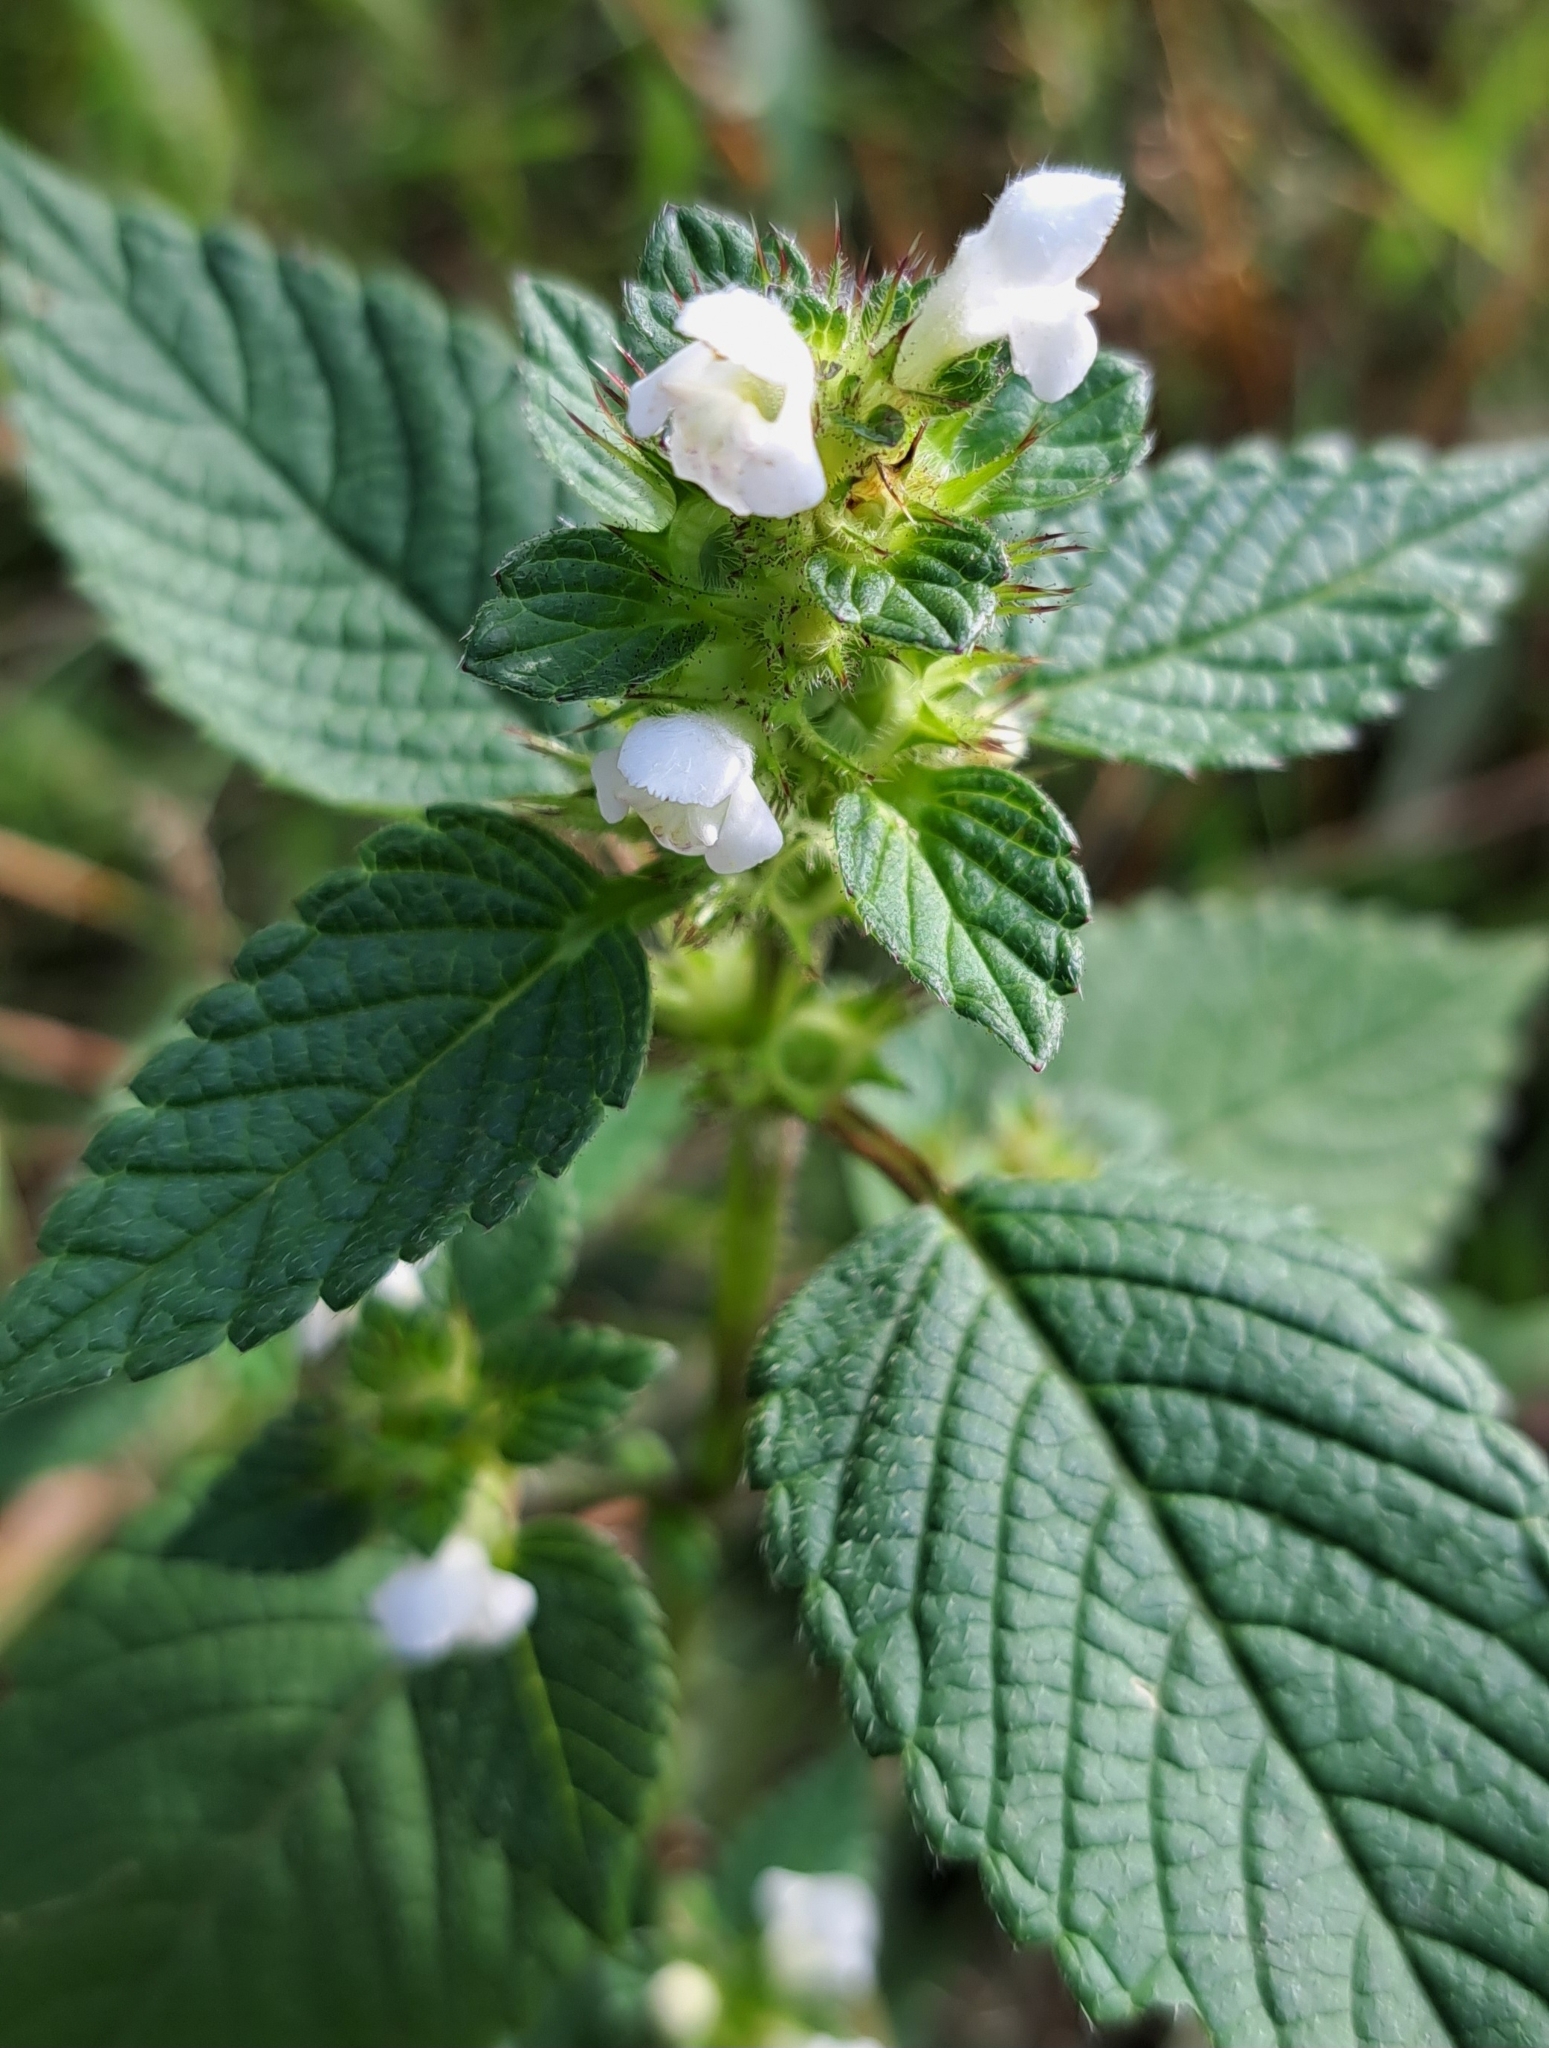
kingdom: Plantae
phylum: Tracheophyta
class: Magnoliopsida
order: Lamiales
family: Lamiaceae
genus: Galeopsis
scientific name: Galeopsis tetrahit
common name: Common hemp-nettle
